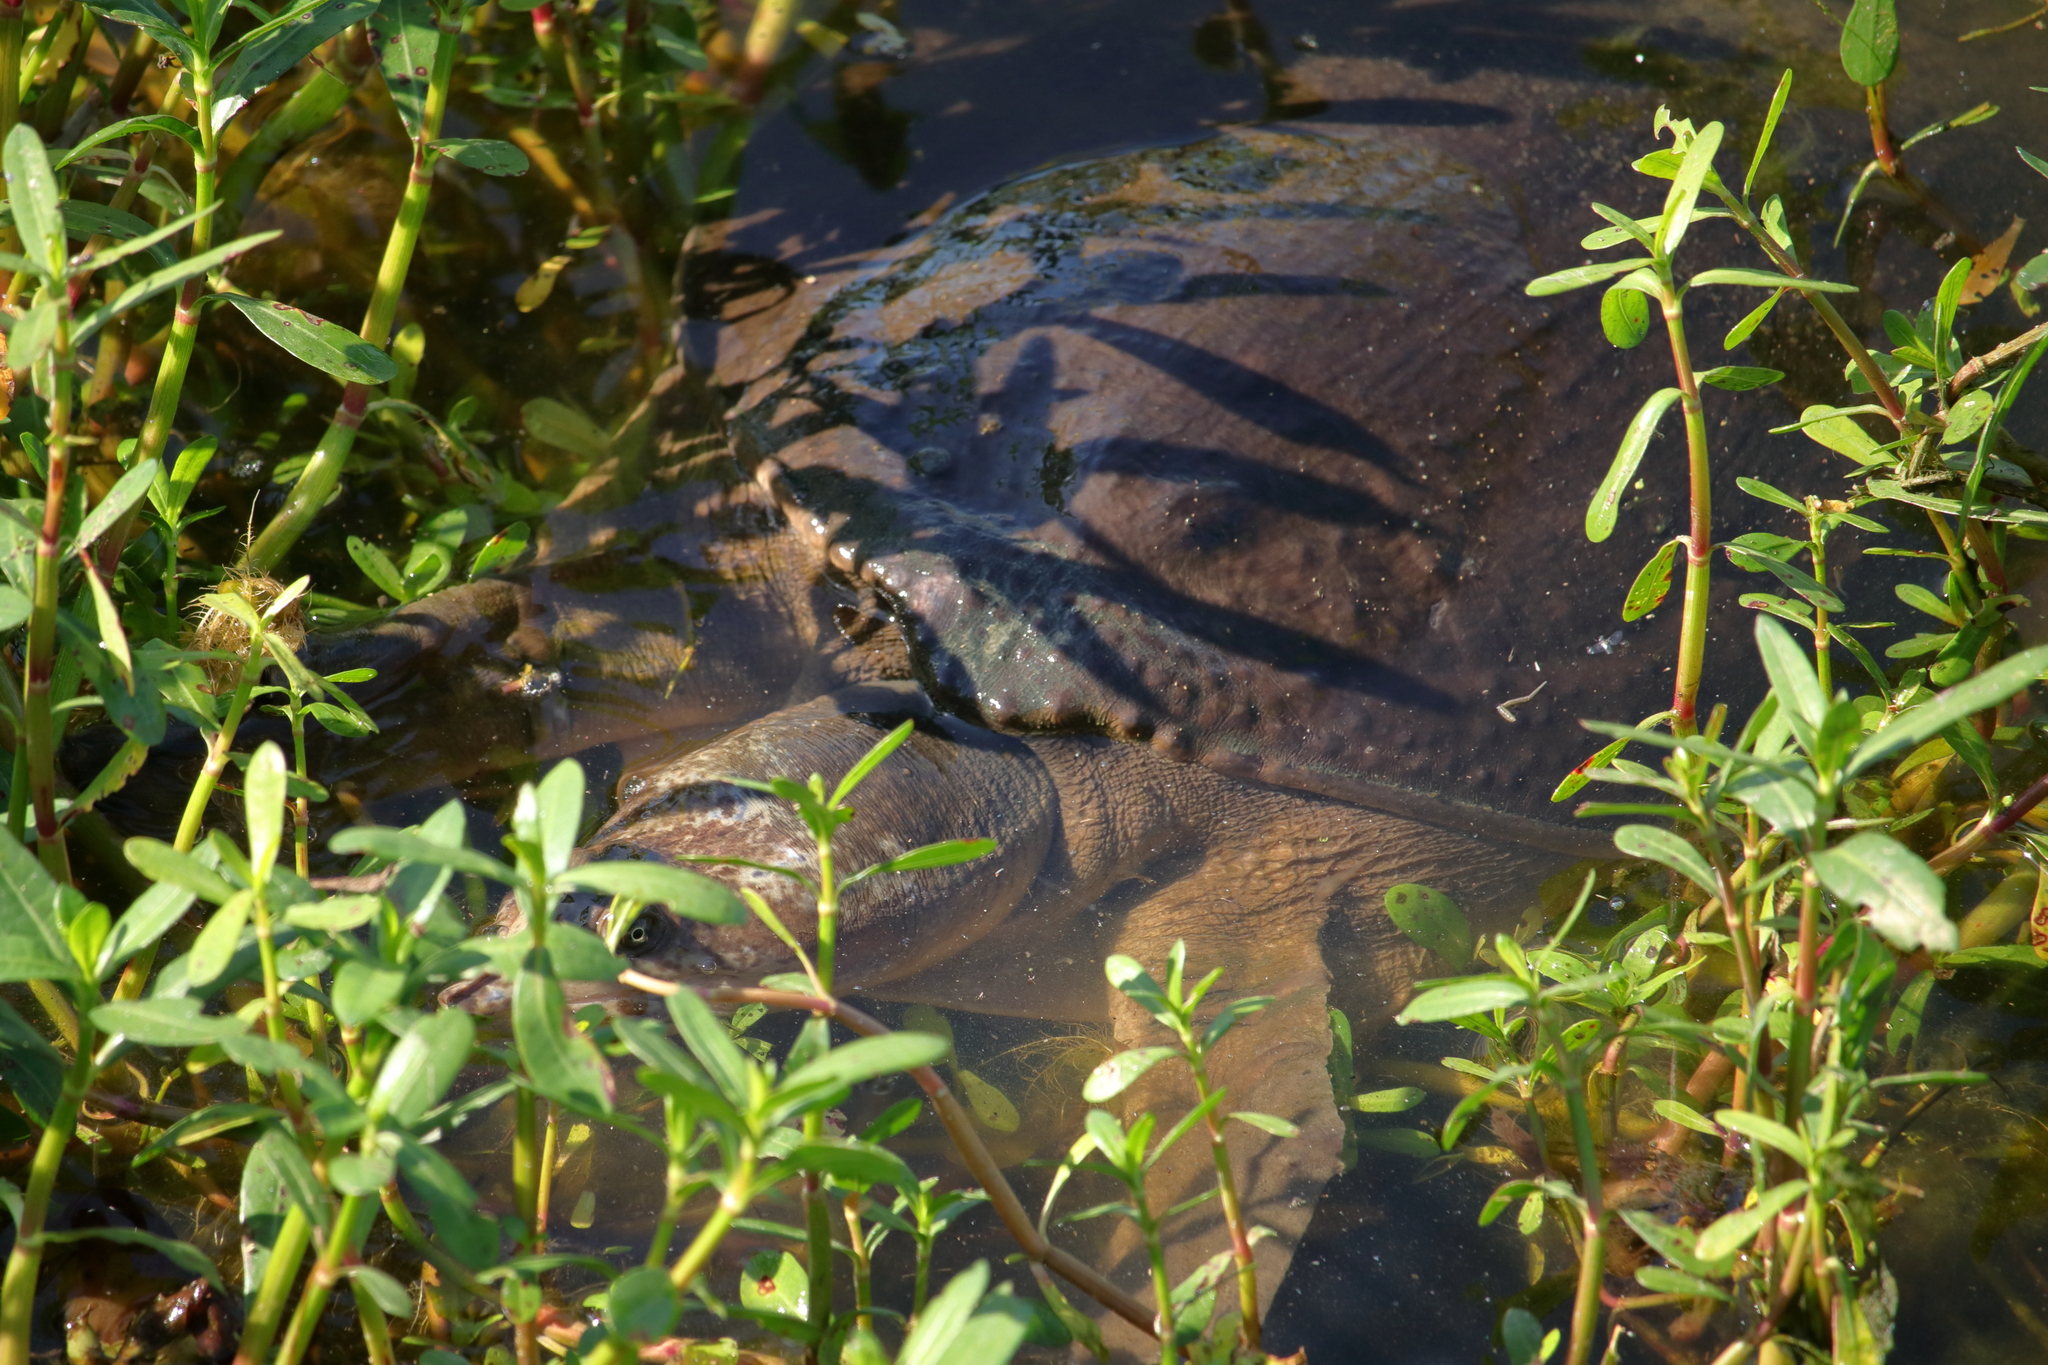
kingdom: Animalia
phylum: Chordata
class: Testudines
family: Trionychidae
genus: Apalone
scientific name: Apalone ferox
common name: Florida softshell turtle
